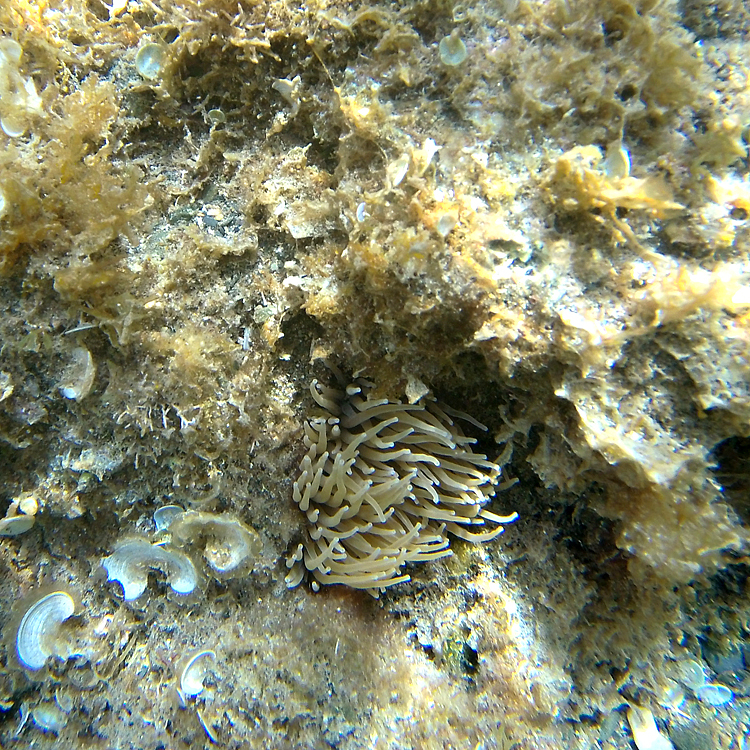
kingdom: Animalia
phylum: Cnidaria
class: Anthozoa
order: Actiniaria
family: Actiniidae
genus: Anemonia
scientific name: Anemonia viridis
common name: Snakelocks anemone
